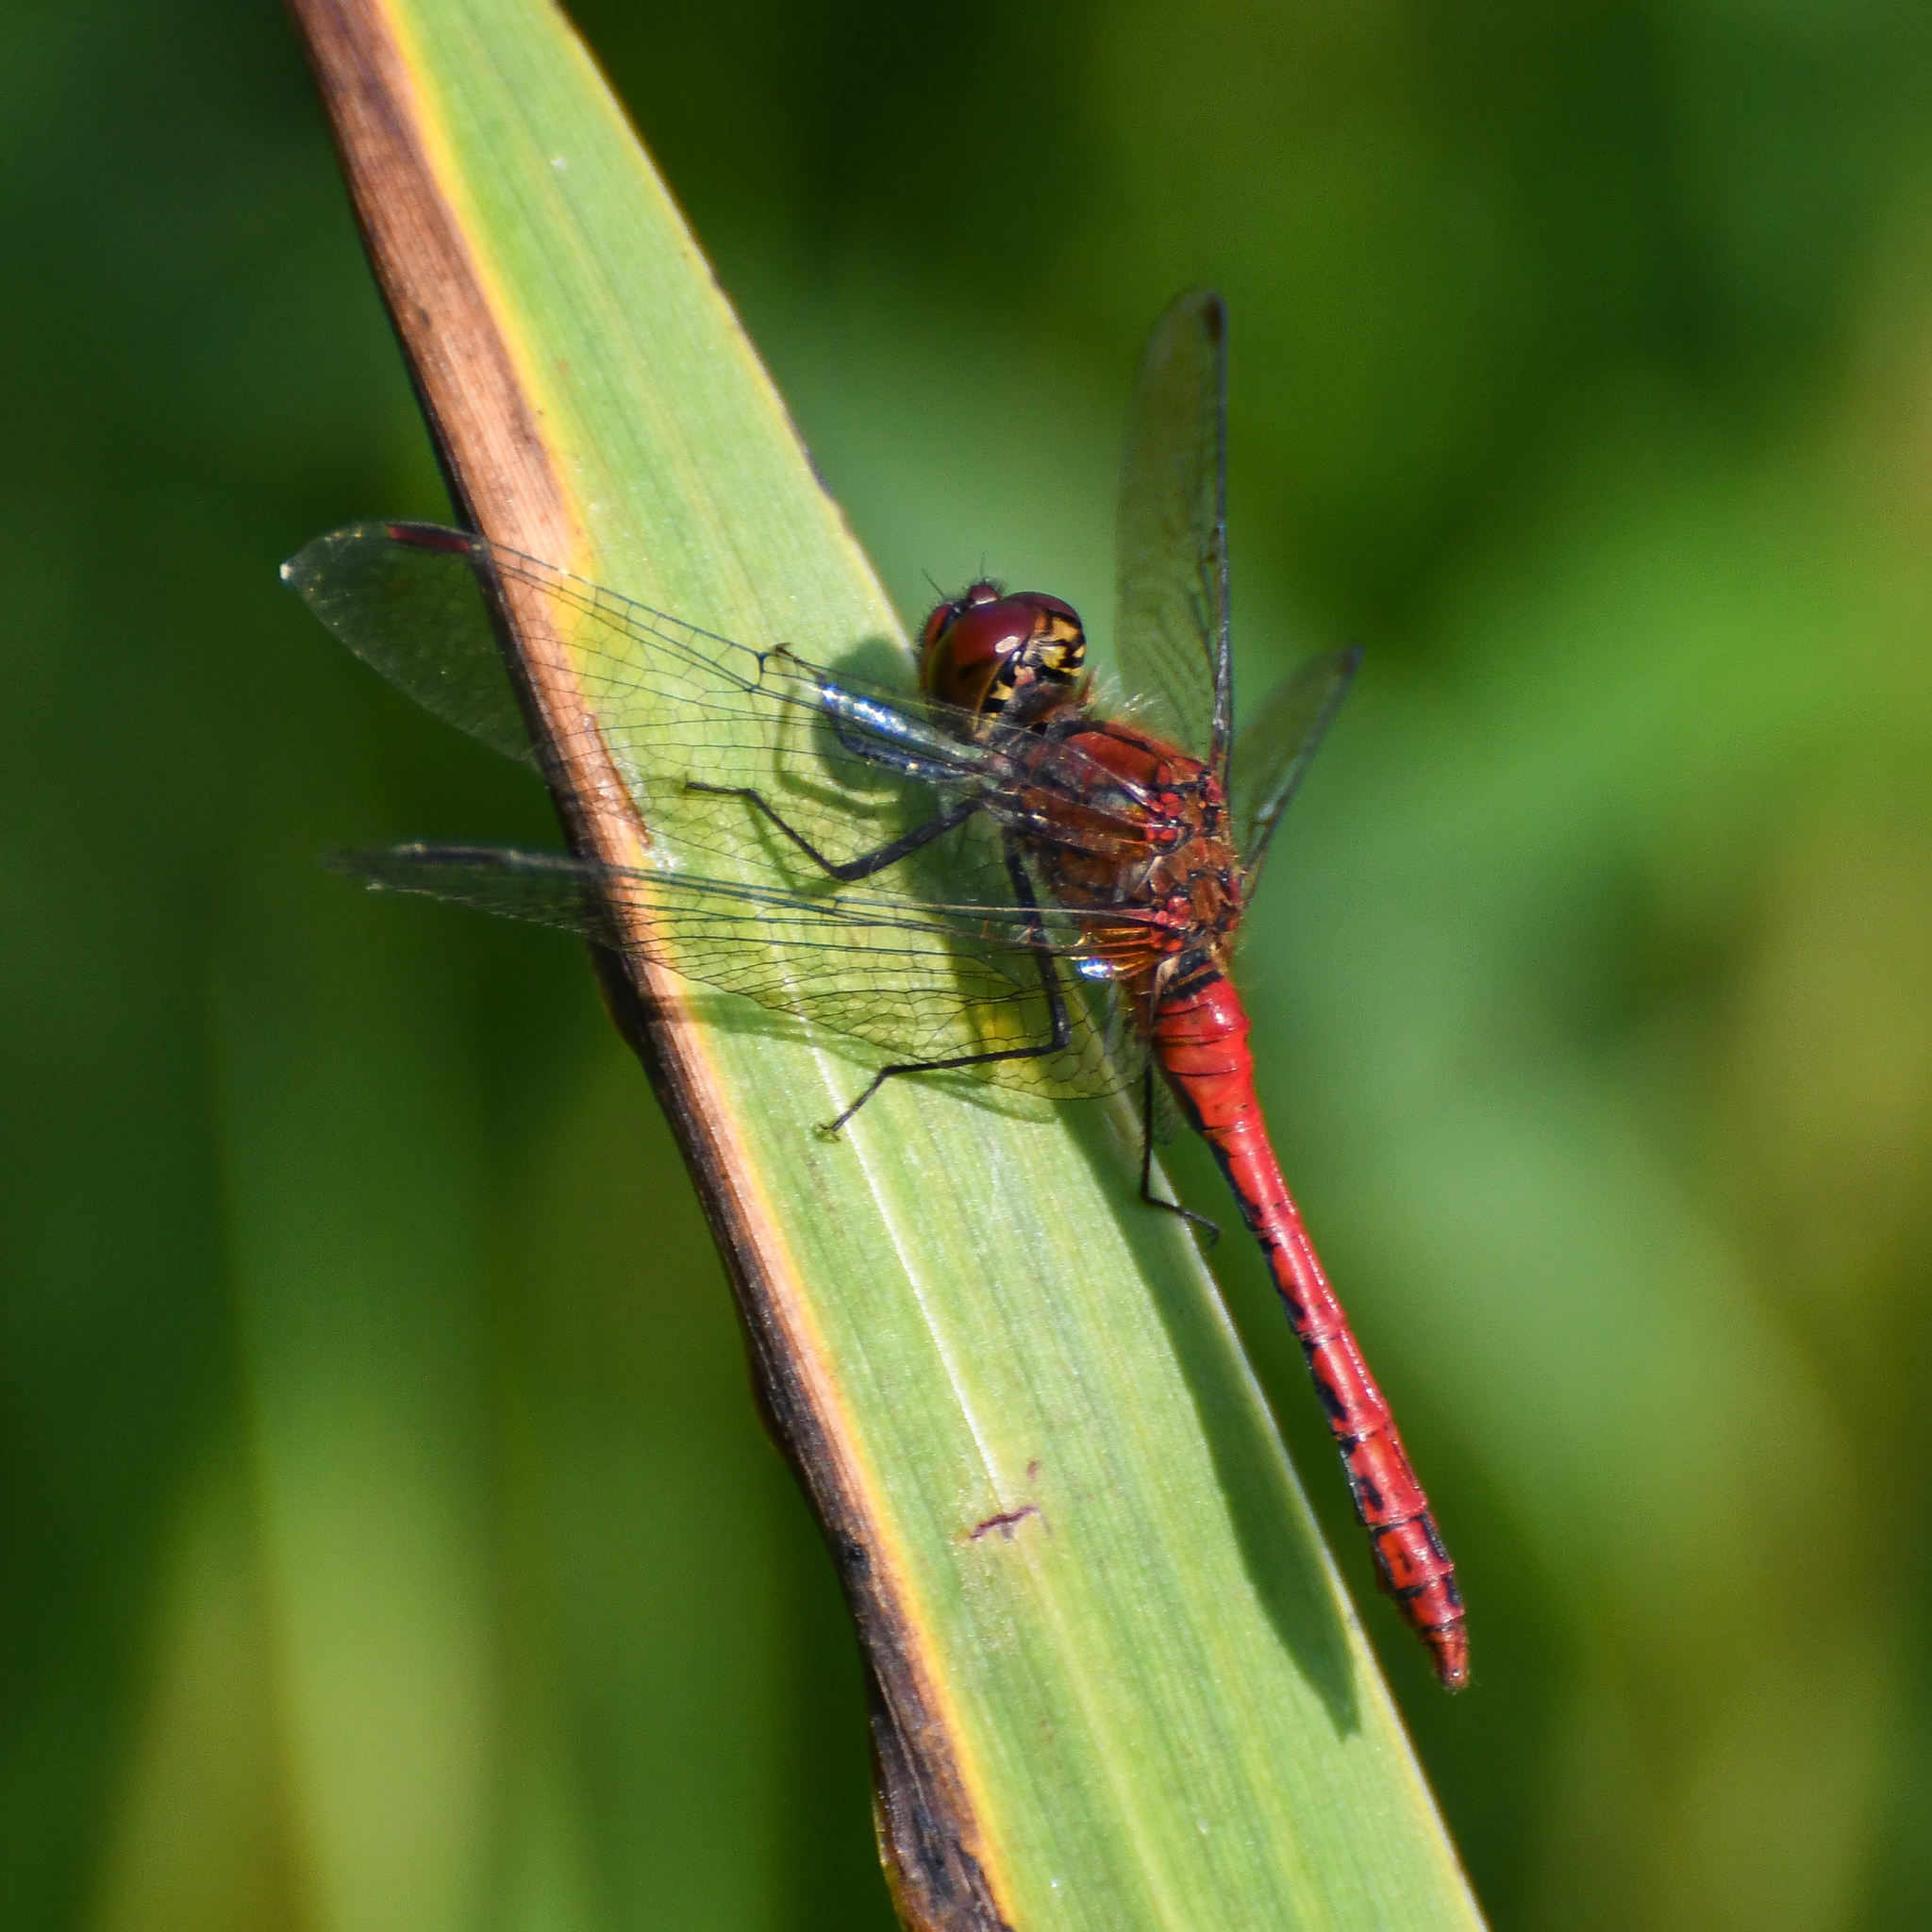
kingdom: Animalia
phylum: Arthropoda
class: Insecta
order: Odonata
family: Libellulidae
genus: Sympetrum
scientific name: Sympetrum sanguineum
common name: Ruddy darter
